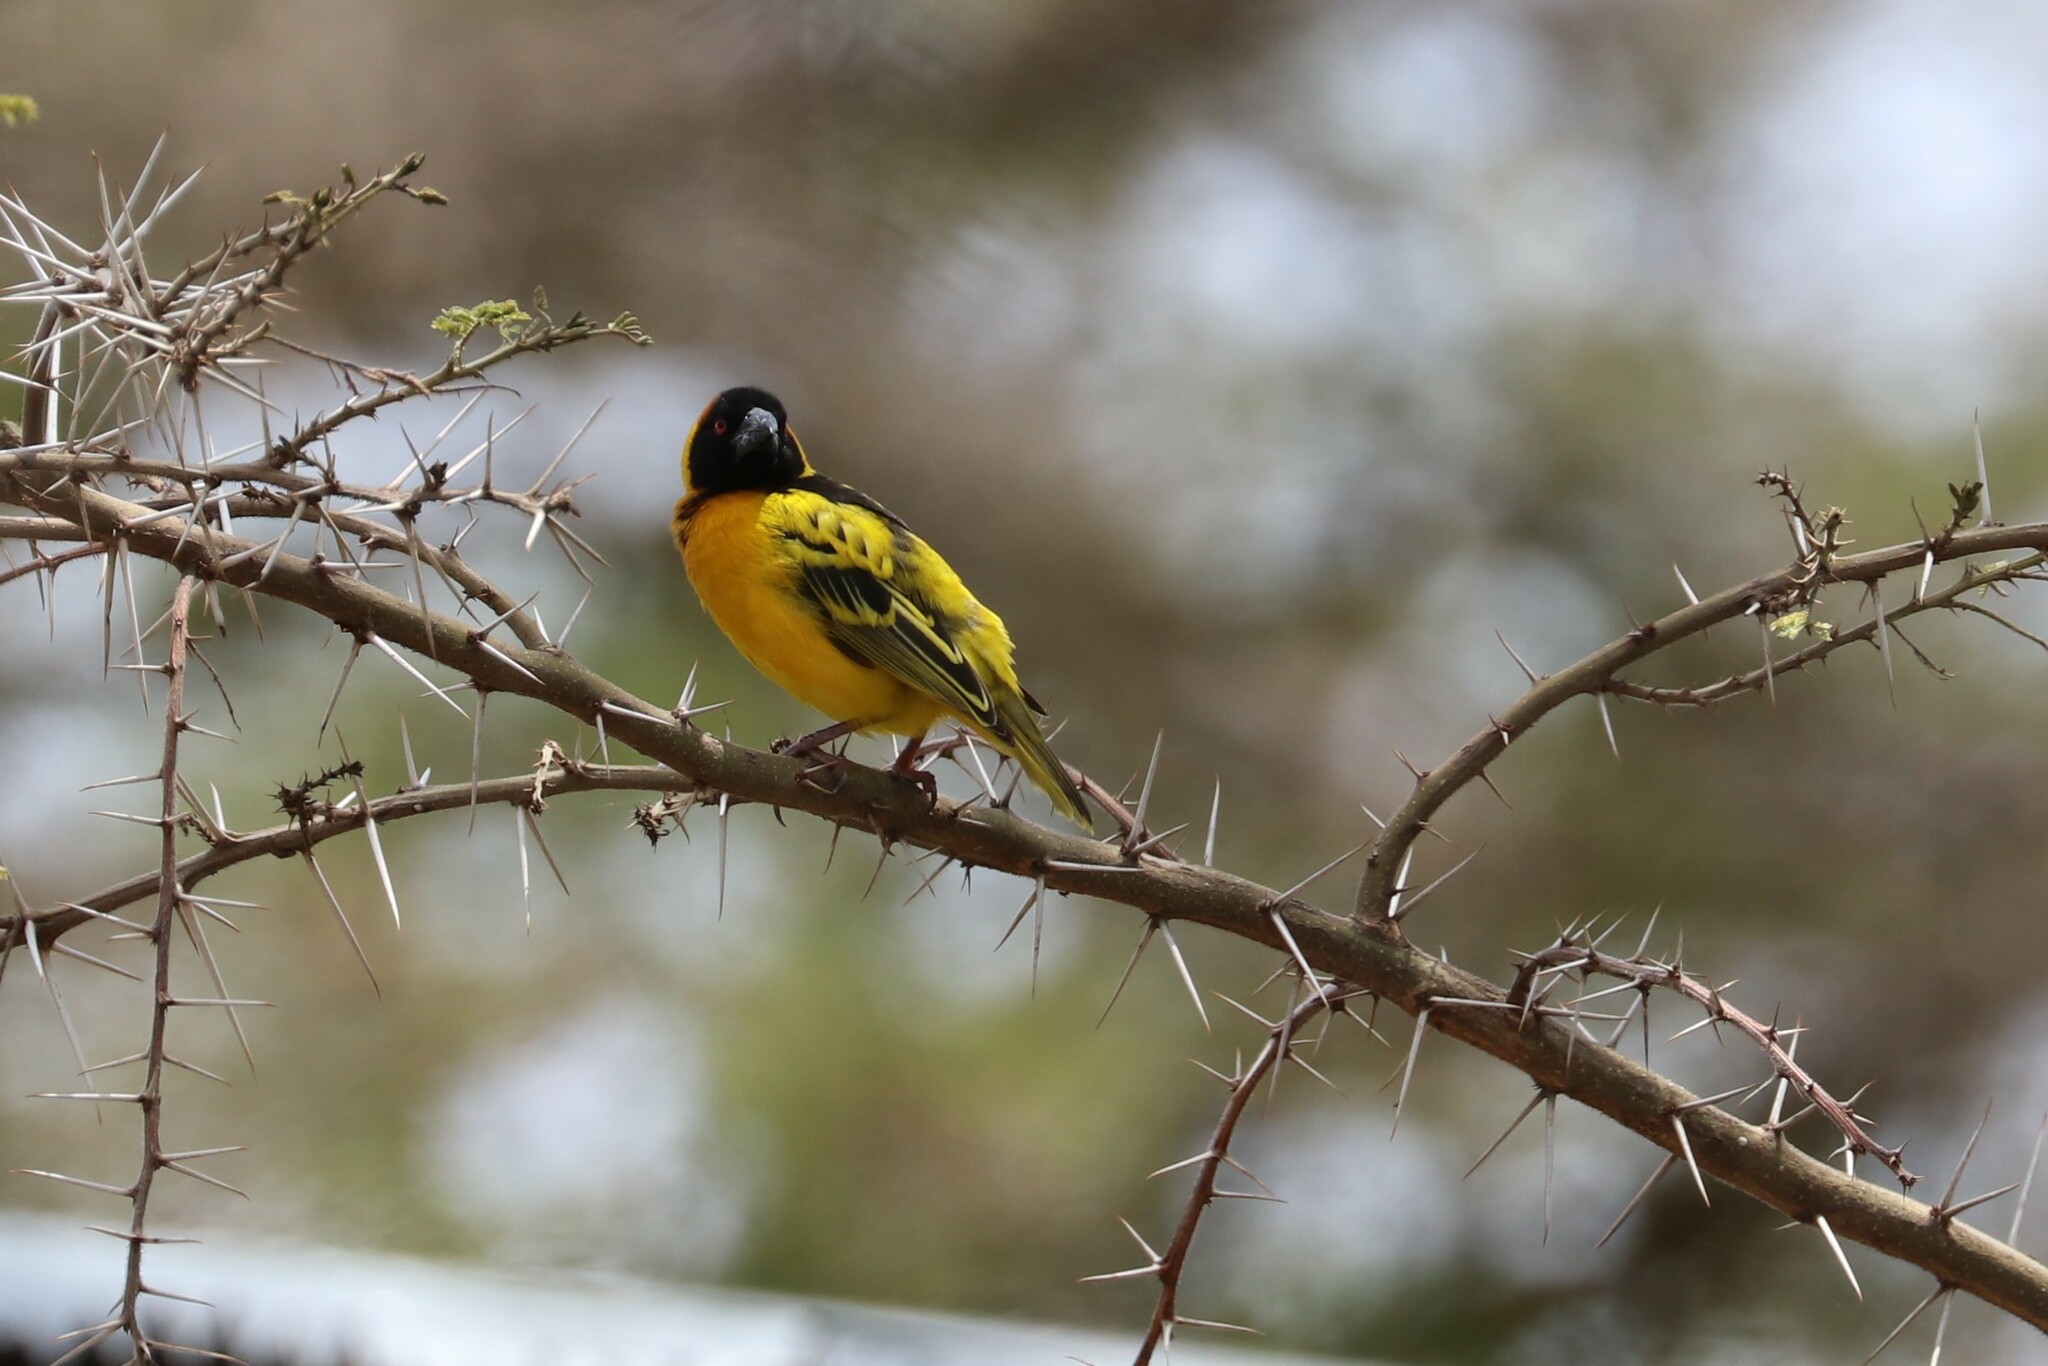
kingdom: Animalia
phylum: Chordata
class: Aves
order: Passeriformes
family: Ploceidae
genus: Ploceus
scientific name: Ploceus cucullatus
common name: Village weaver
